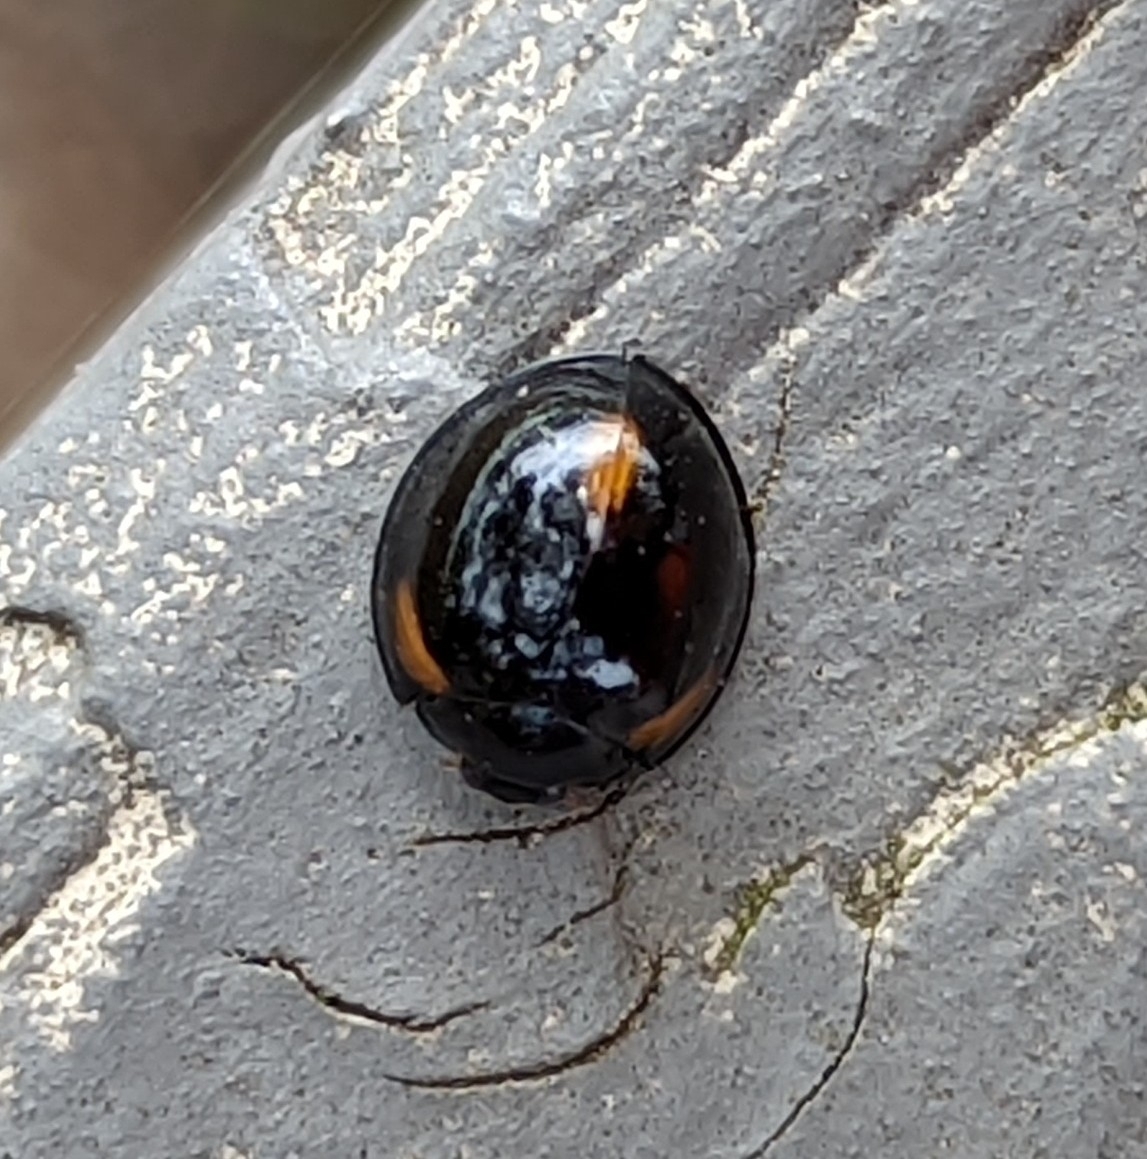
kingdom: Animalia
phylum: Arthropoda
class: Insecta
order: Coleoptera
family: Coccinellidae
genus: Axion
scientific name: Axion tripustulatum
